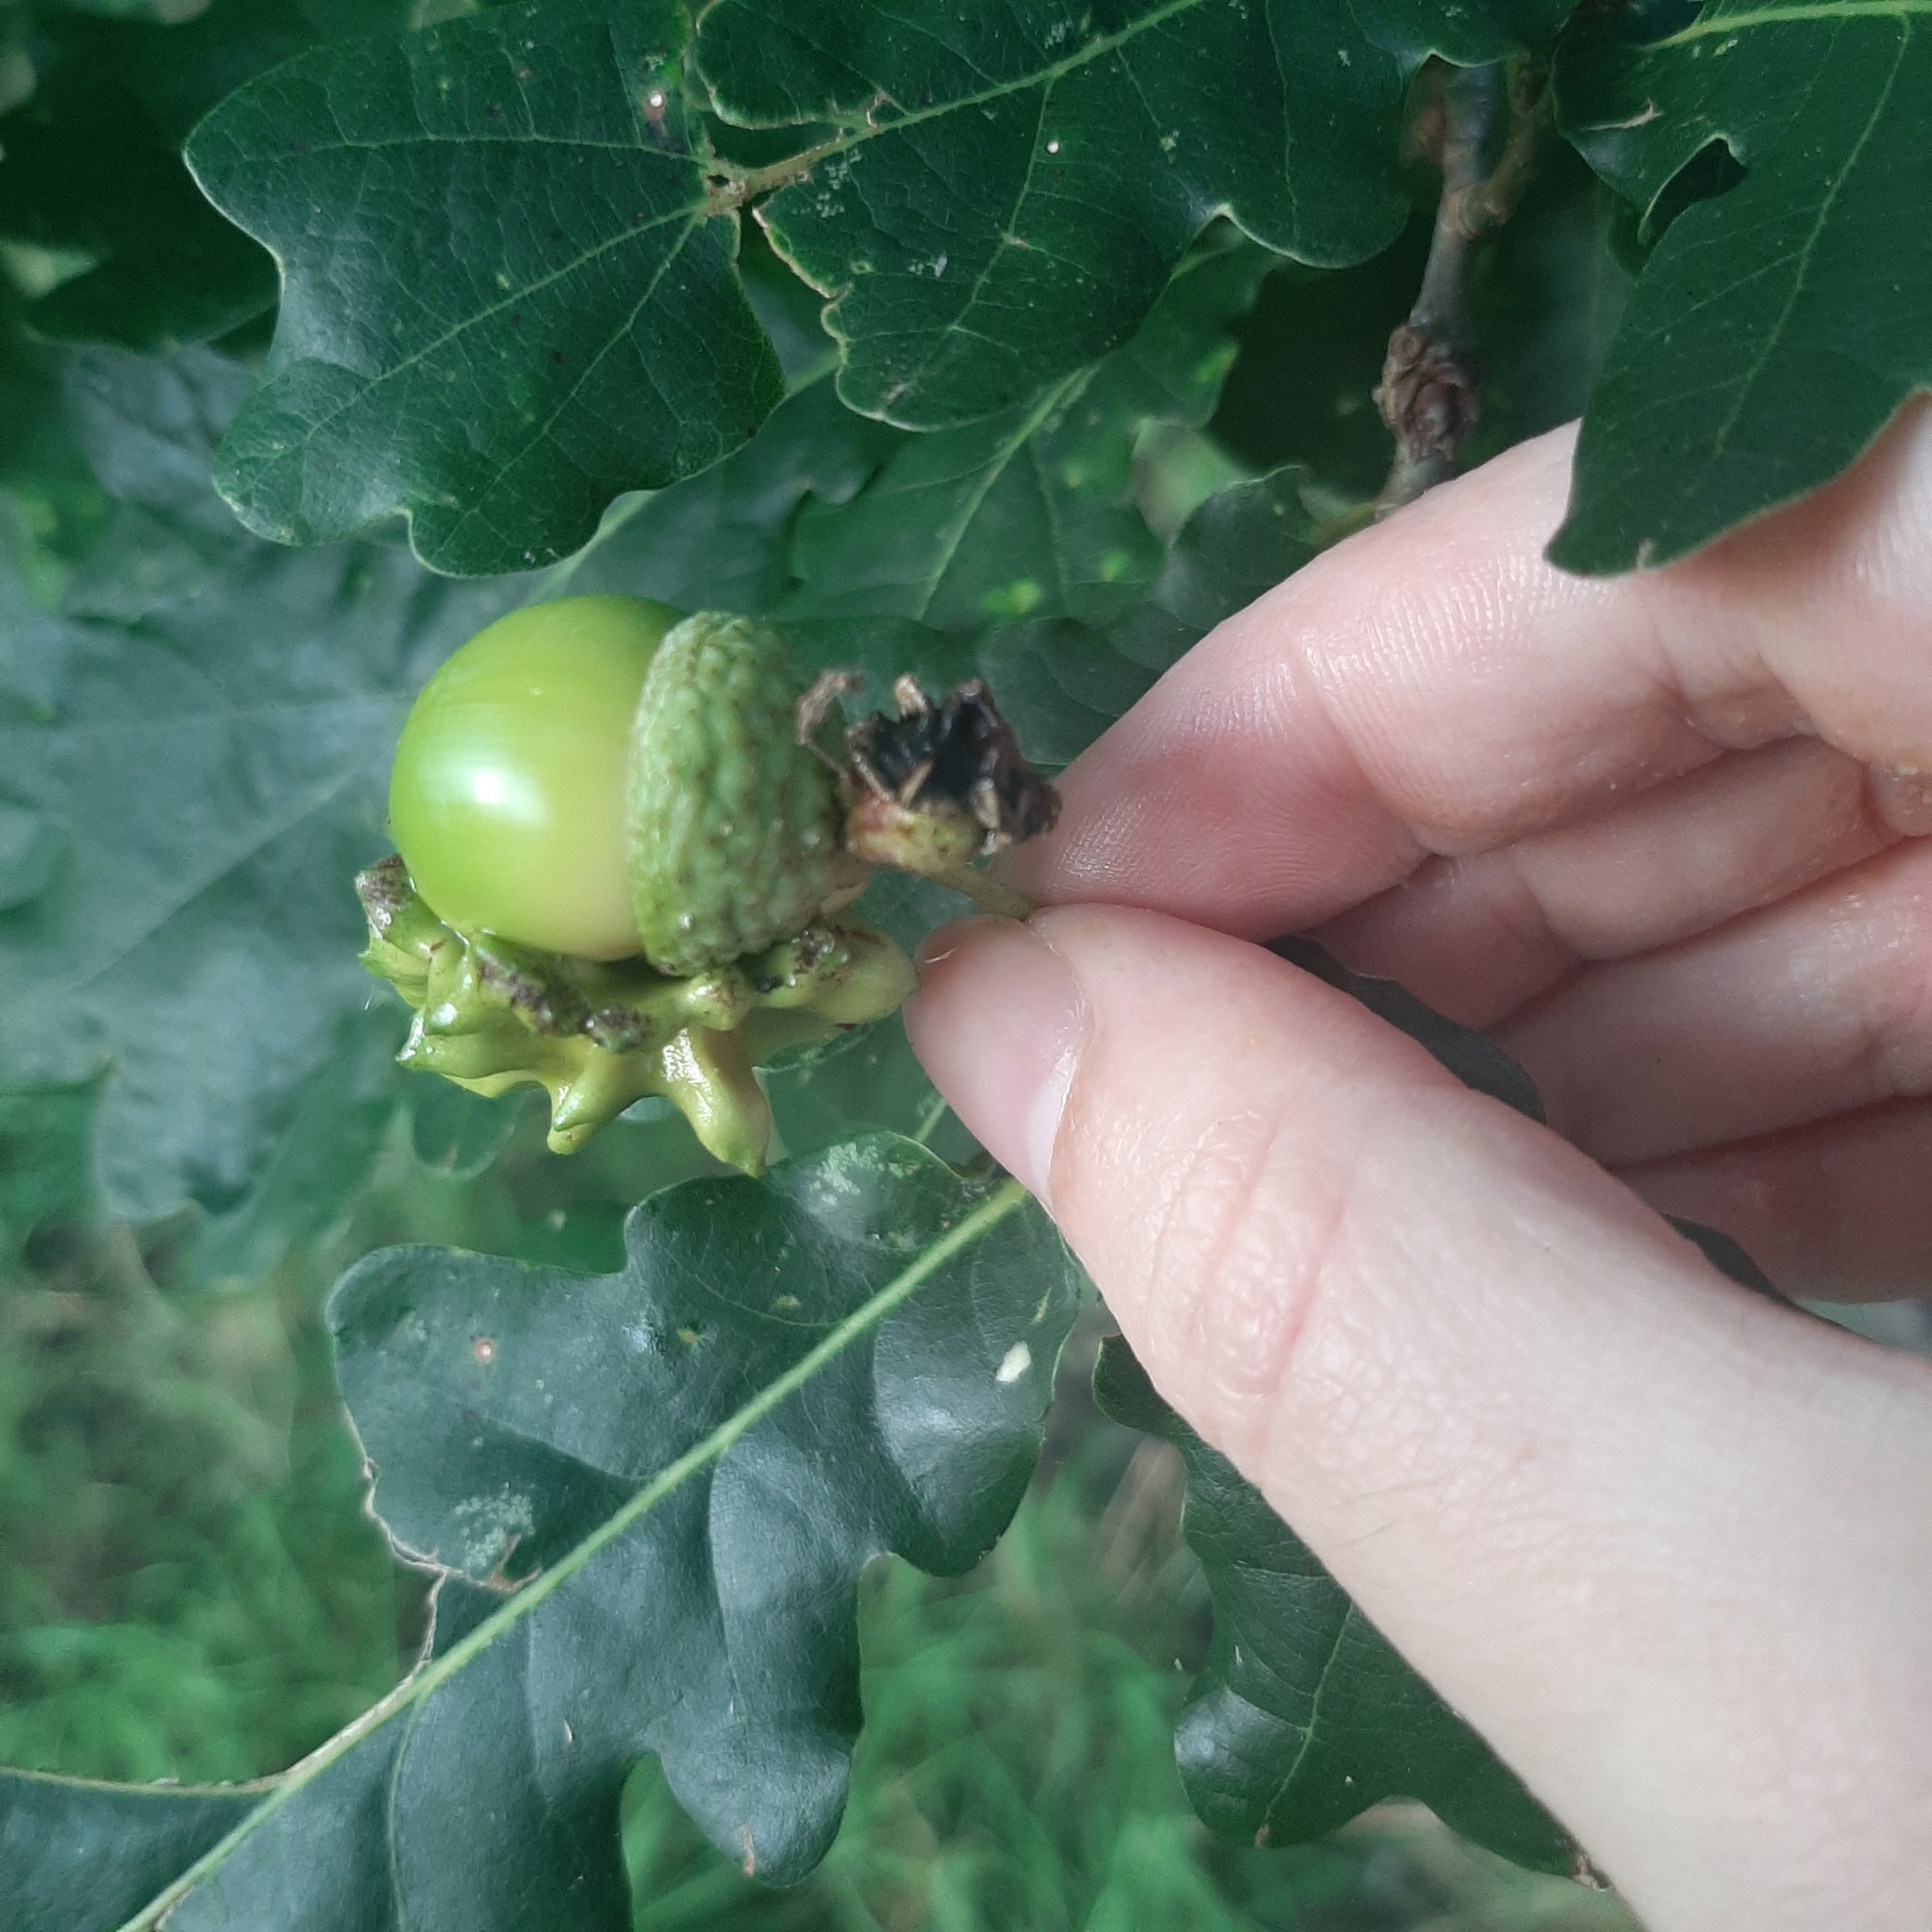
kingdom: Animalia
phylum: Arthropoda
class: Insecta
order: Hymenoptera
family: Cynipidae
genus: Andricus
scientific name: Andricus quercuscalicis
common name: Knopper gall
